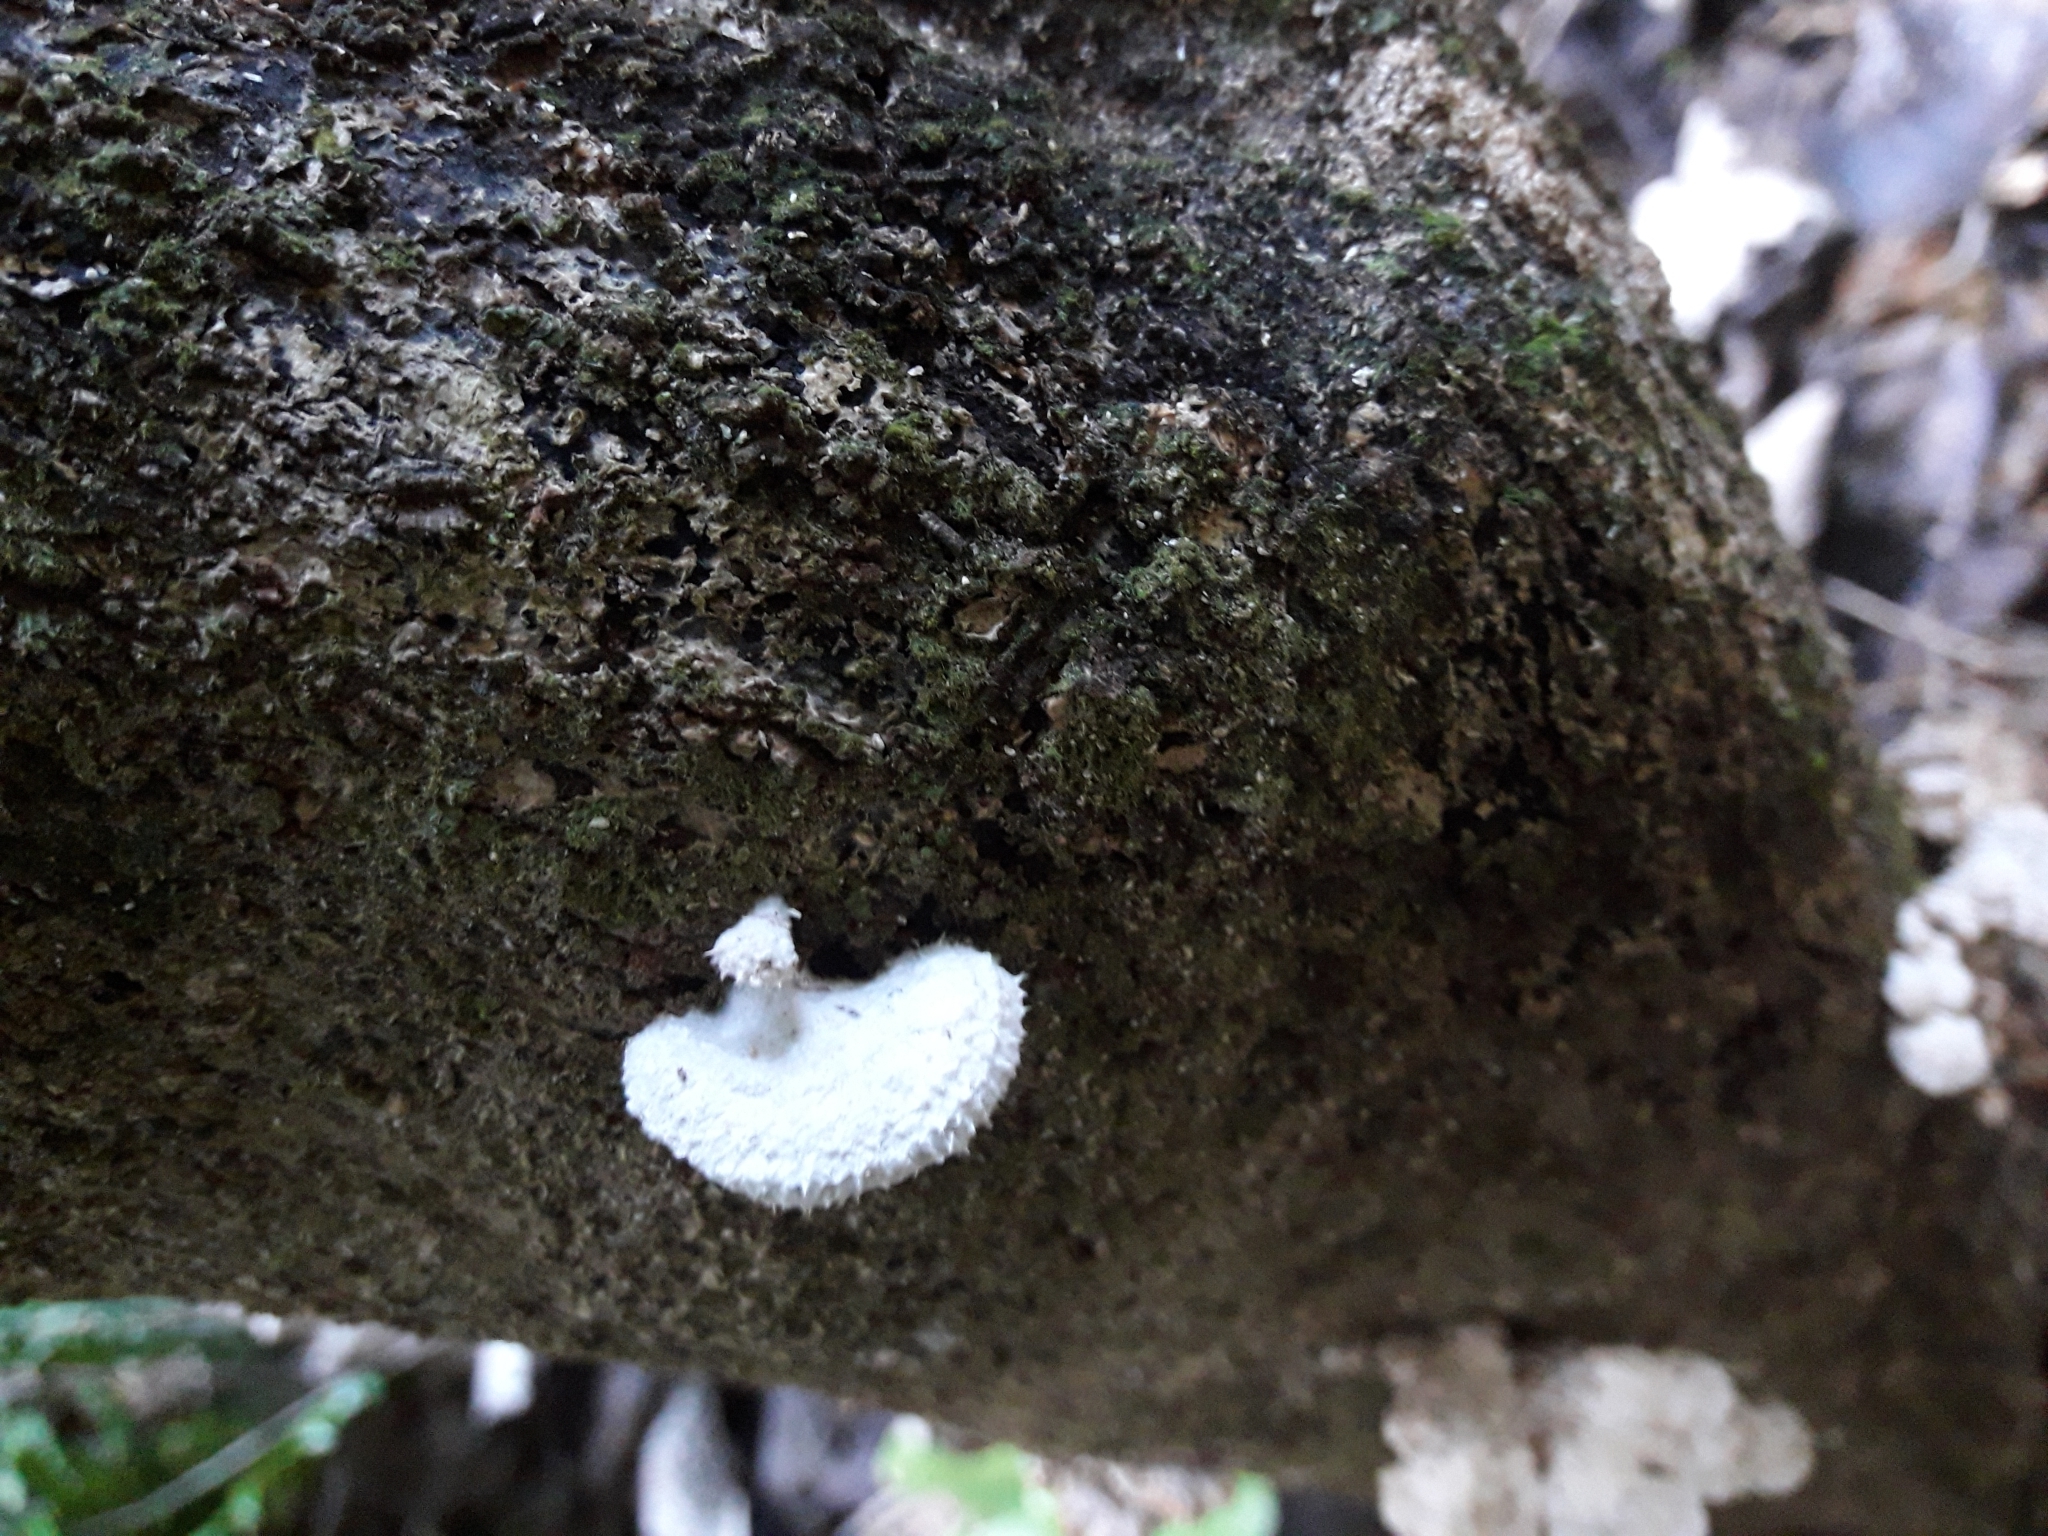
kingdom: Fungi
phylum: Basidiomycota
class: Agaricomycetes
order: Agaricales
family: Schizophyllaceae
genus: Schizophyllum
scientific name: Schizophyllum commune
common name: Common porecrust
